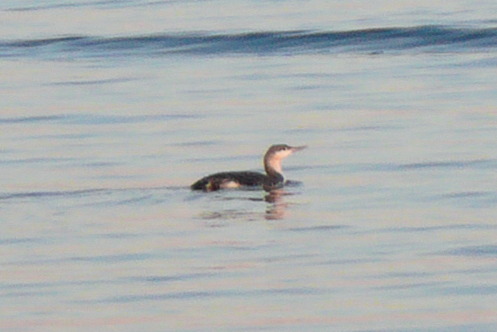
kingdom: Animalia
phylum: Chordata
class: Aves
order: Gaviiformes
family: Gaviidae
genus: Gavia
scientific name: Gavia stellata
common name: Red-throated loon
